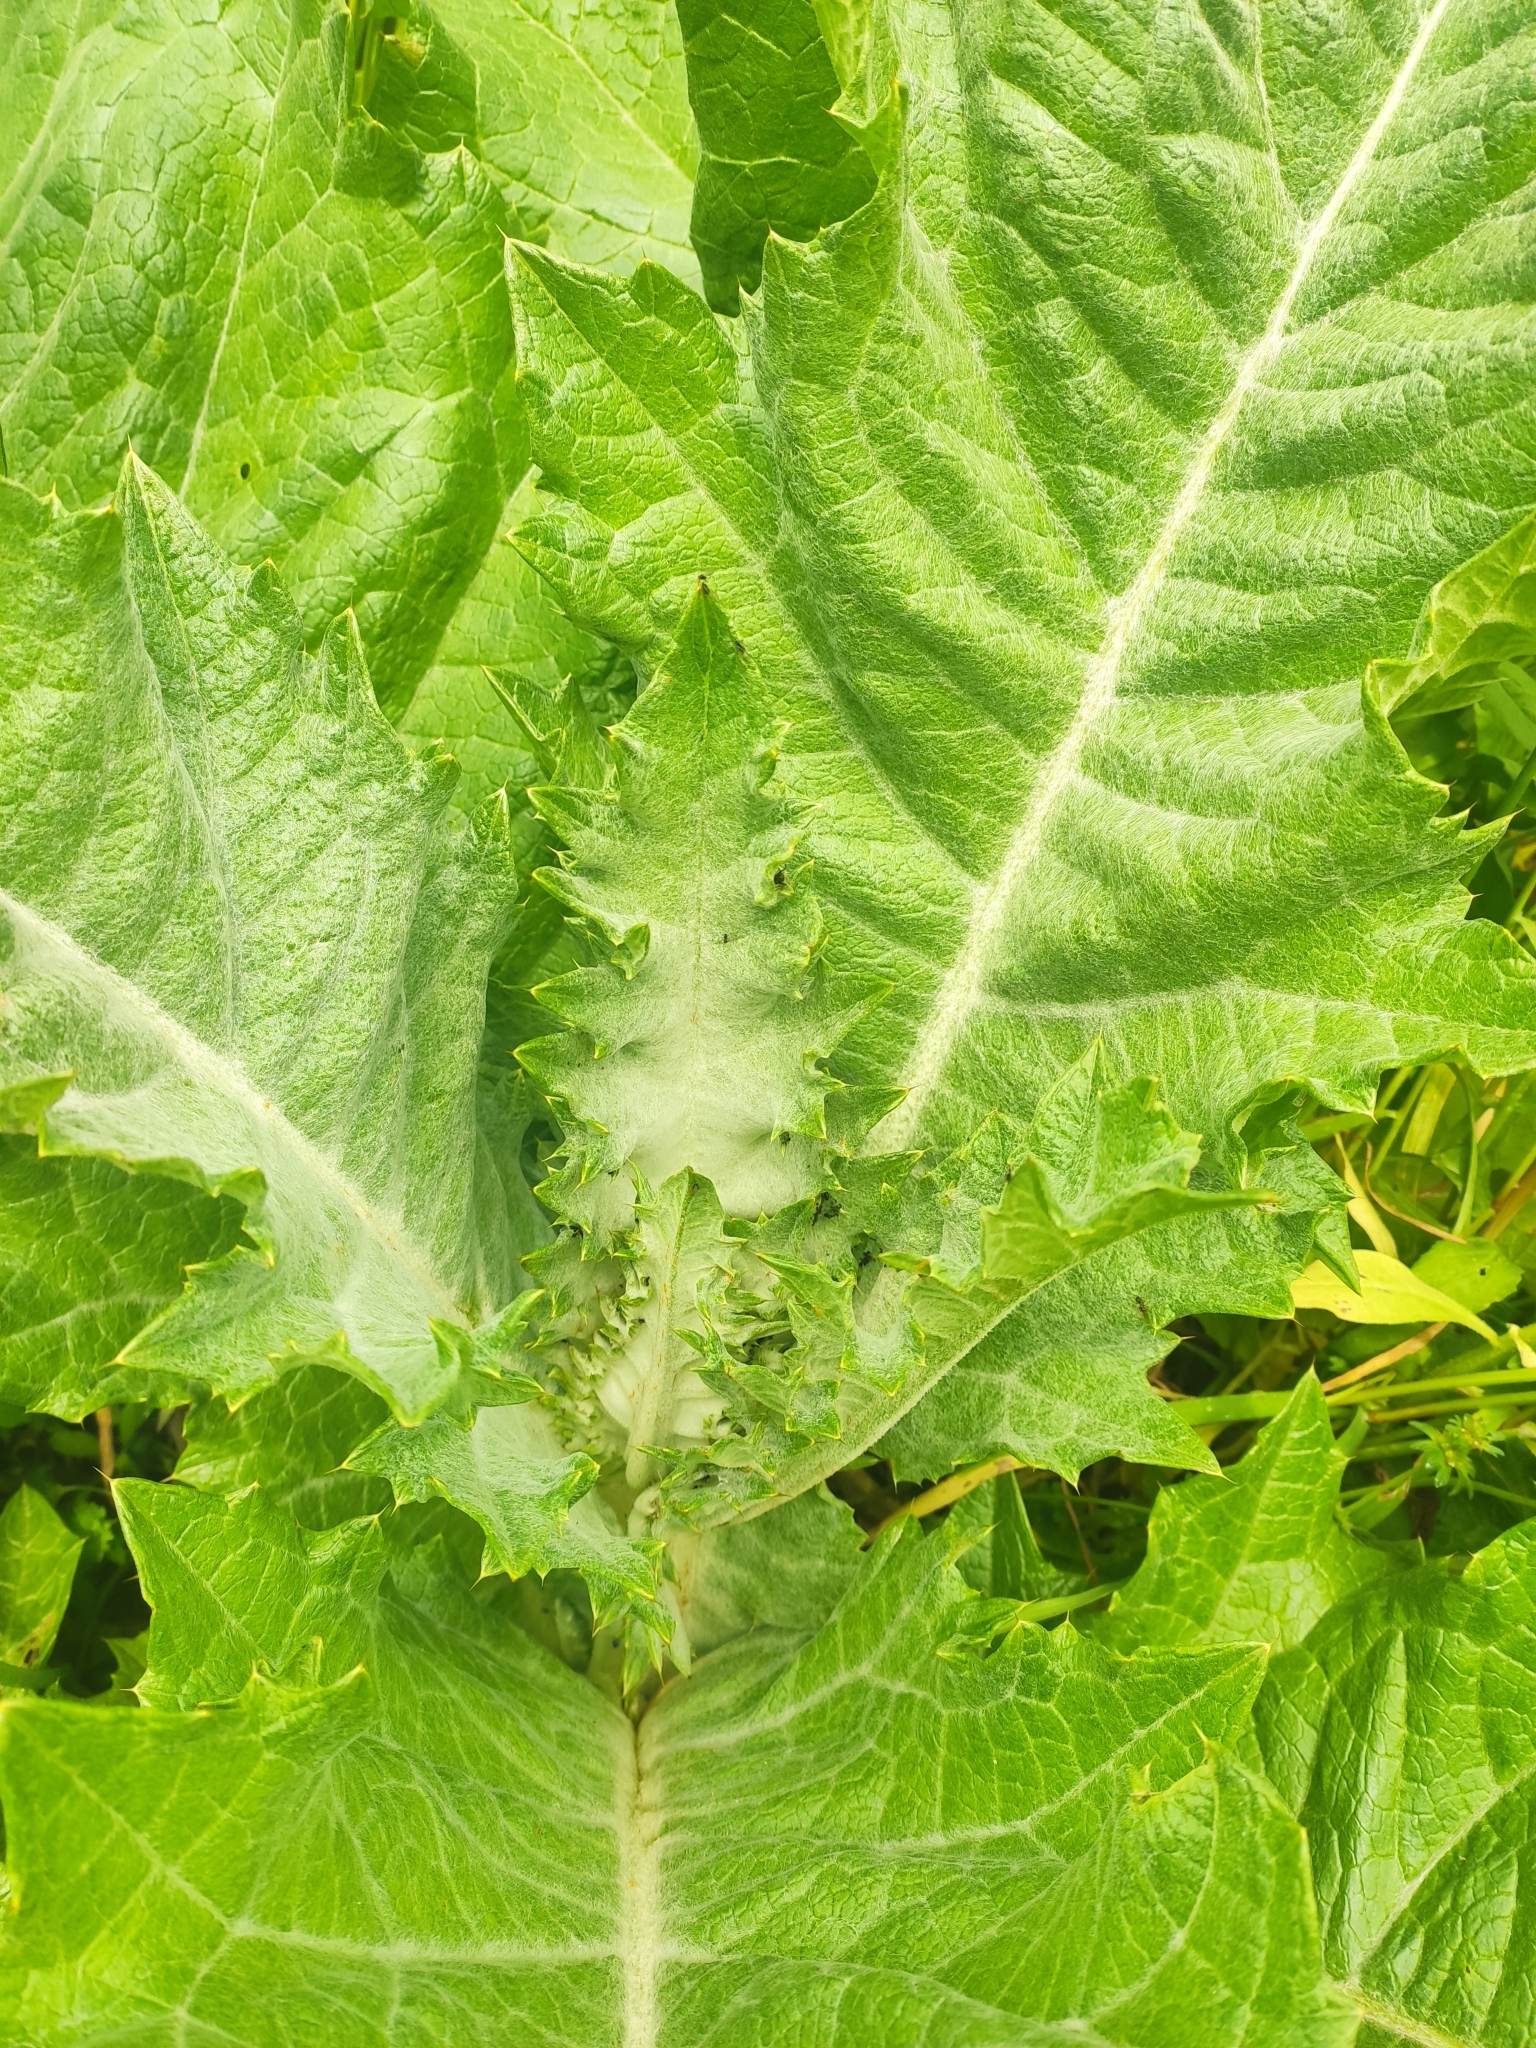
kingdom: Plantae
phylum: Tracheophyta
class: Magnoliopsida
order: Asterales
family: Asteraceae
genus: Onopordum
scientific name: Onopordum acanthium
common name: Scotch thistle
